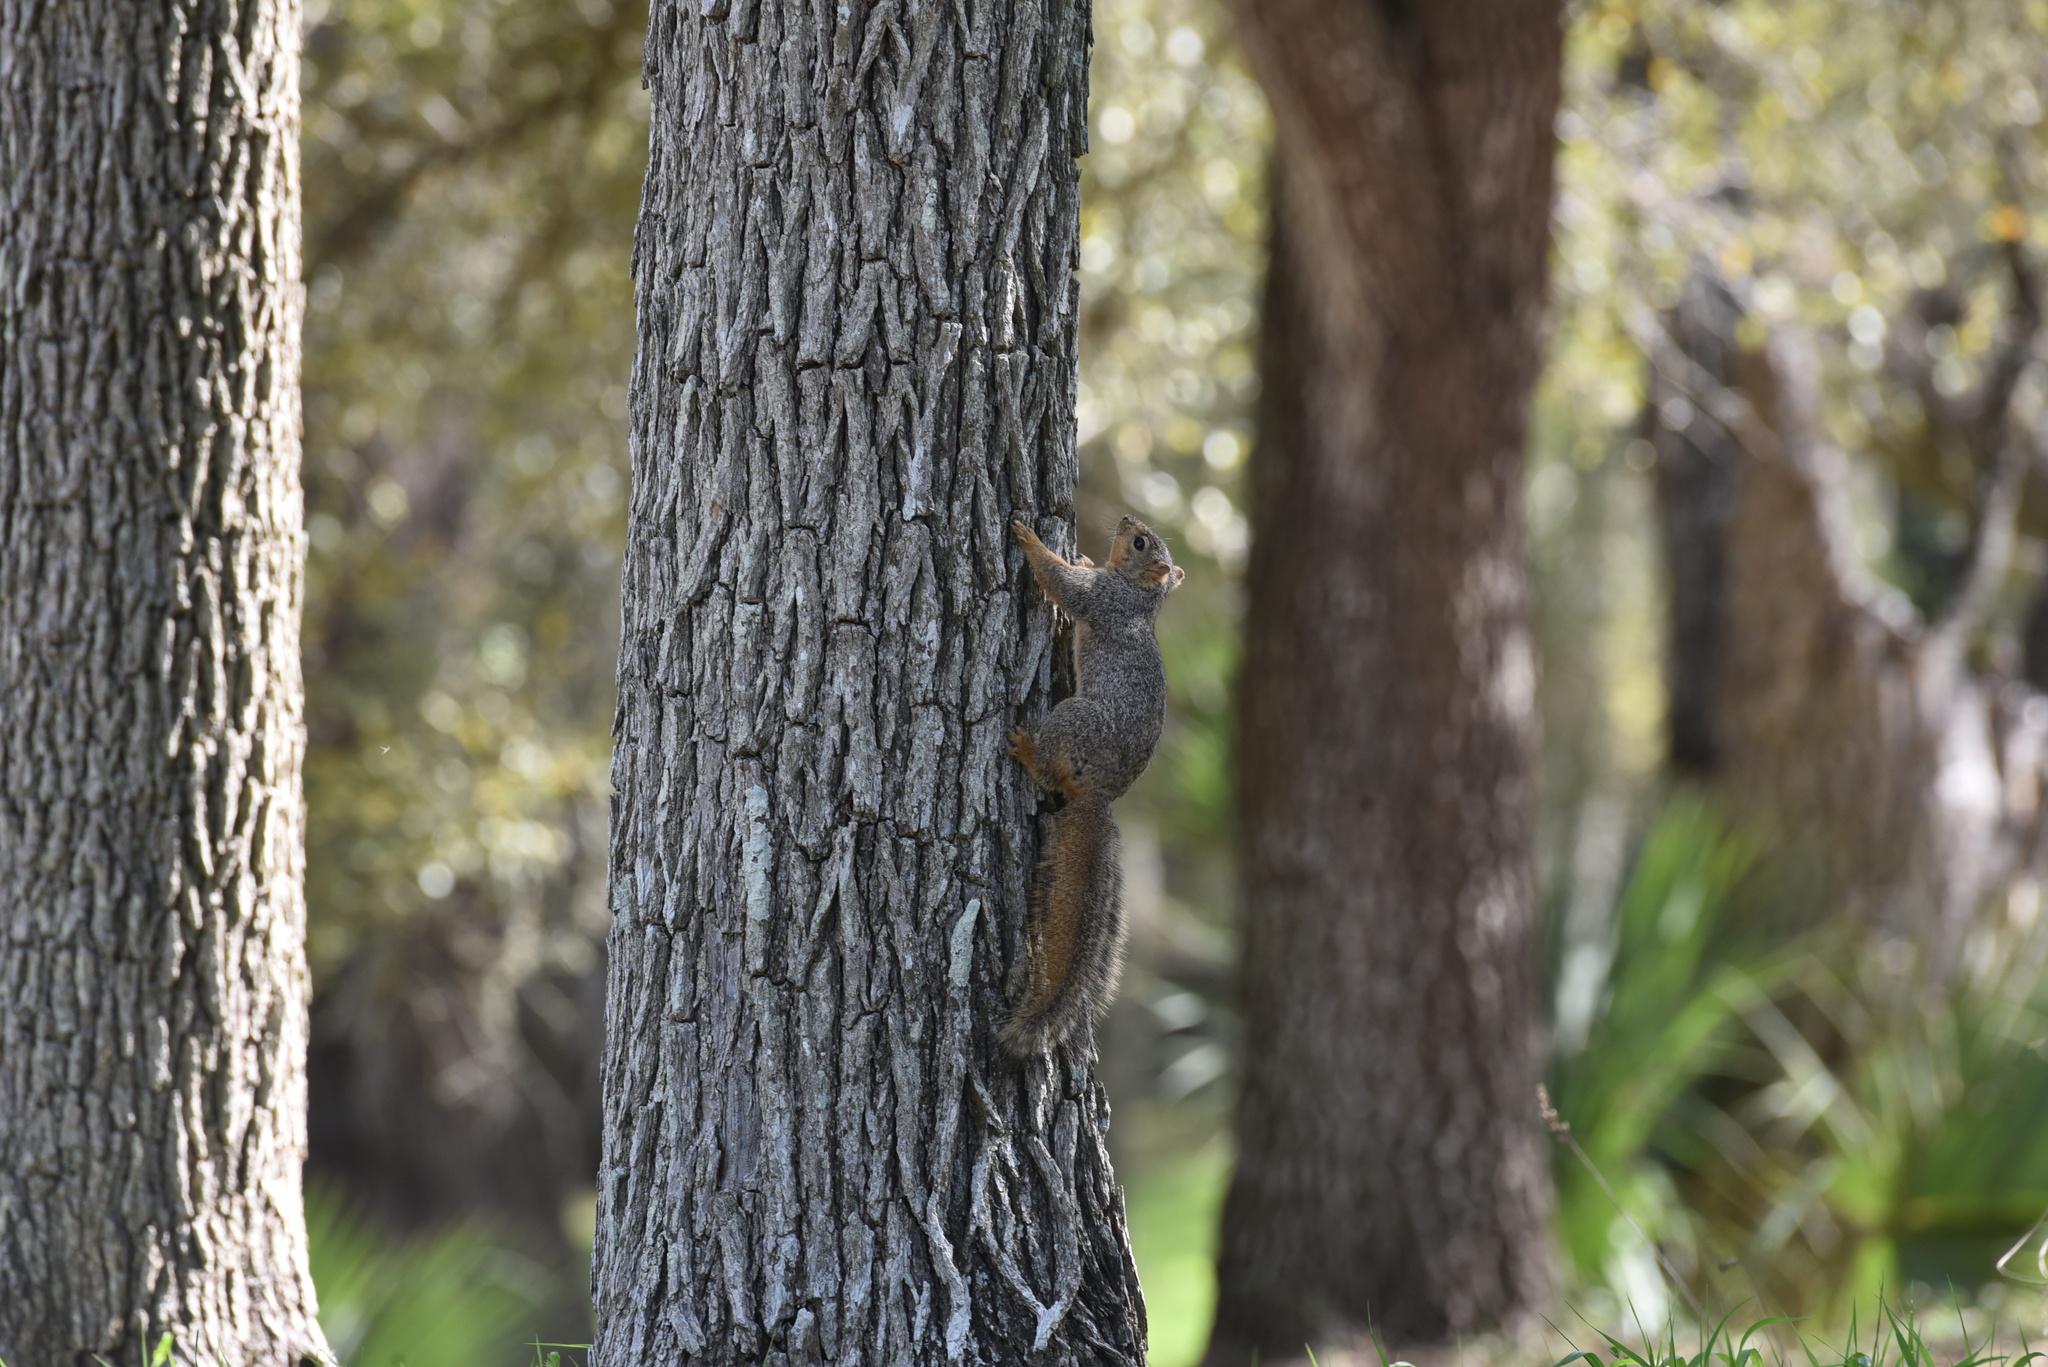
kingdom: Animalia
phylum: Chordata
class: Mammalia
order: Rodentia
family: Sciuridae
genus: Sciurus
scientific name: Sciurus niger
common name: Fox squirrel
